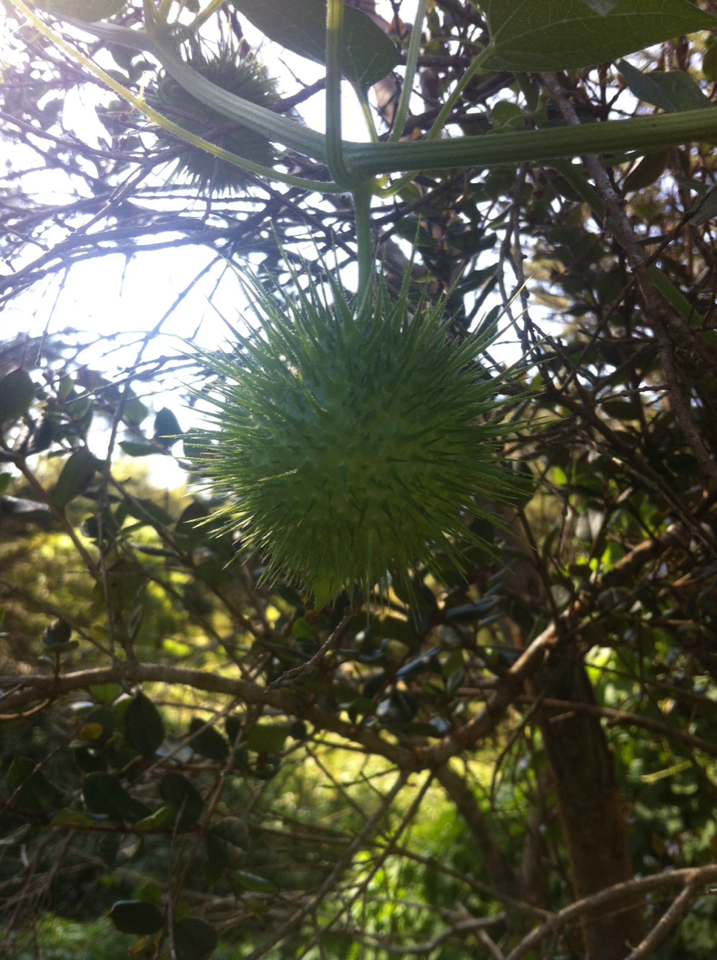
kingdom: Plantae
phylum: Tracheophyta
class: Magnoliopsida
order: Cucurbitales
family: Cucurbitaceae
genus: Marah
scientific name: Marah fabacea
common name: California manroot
